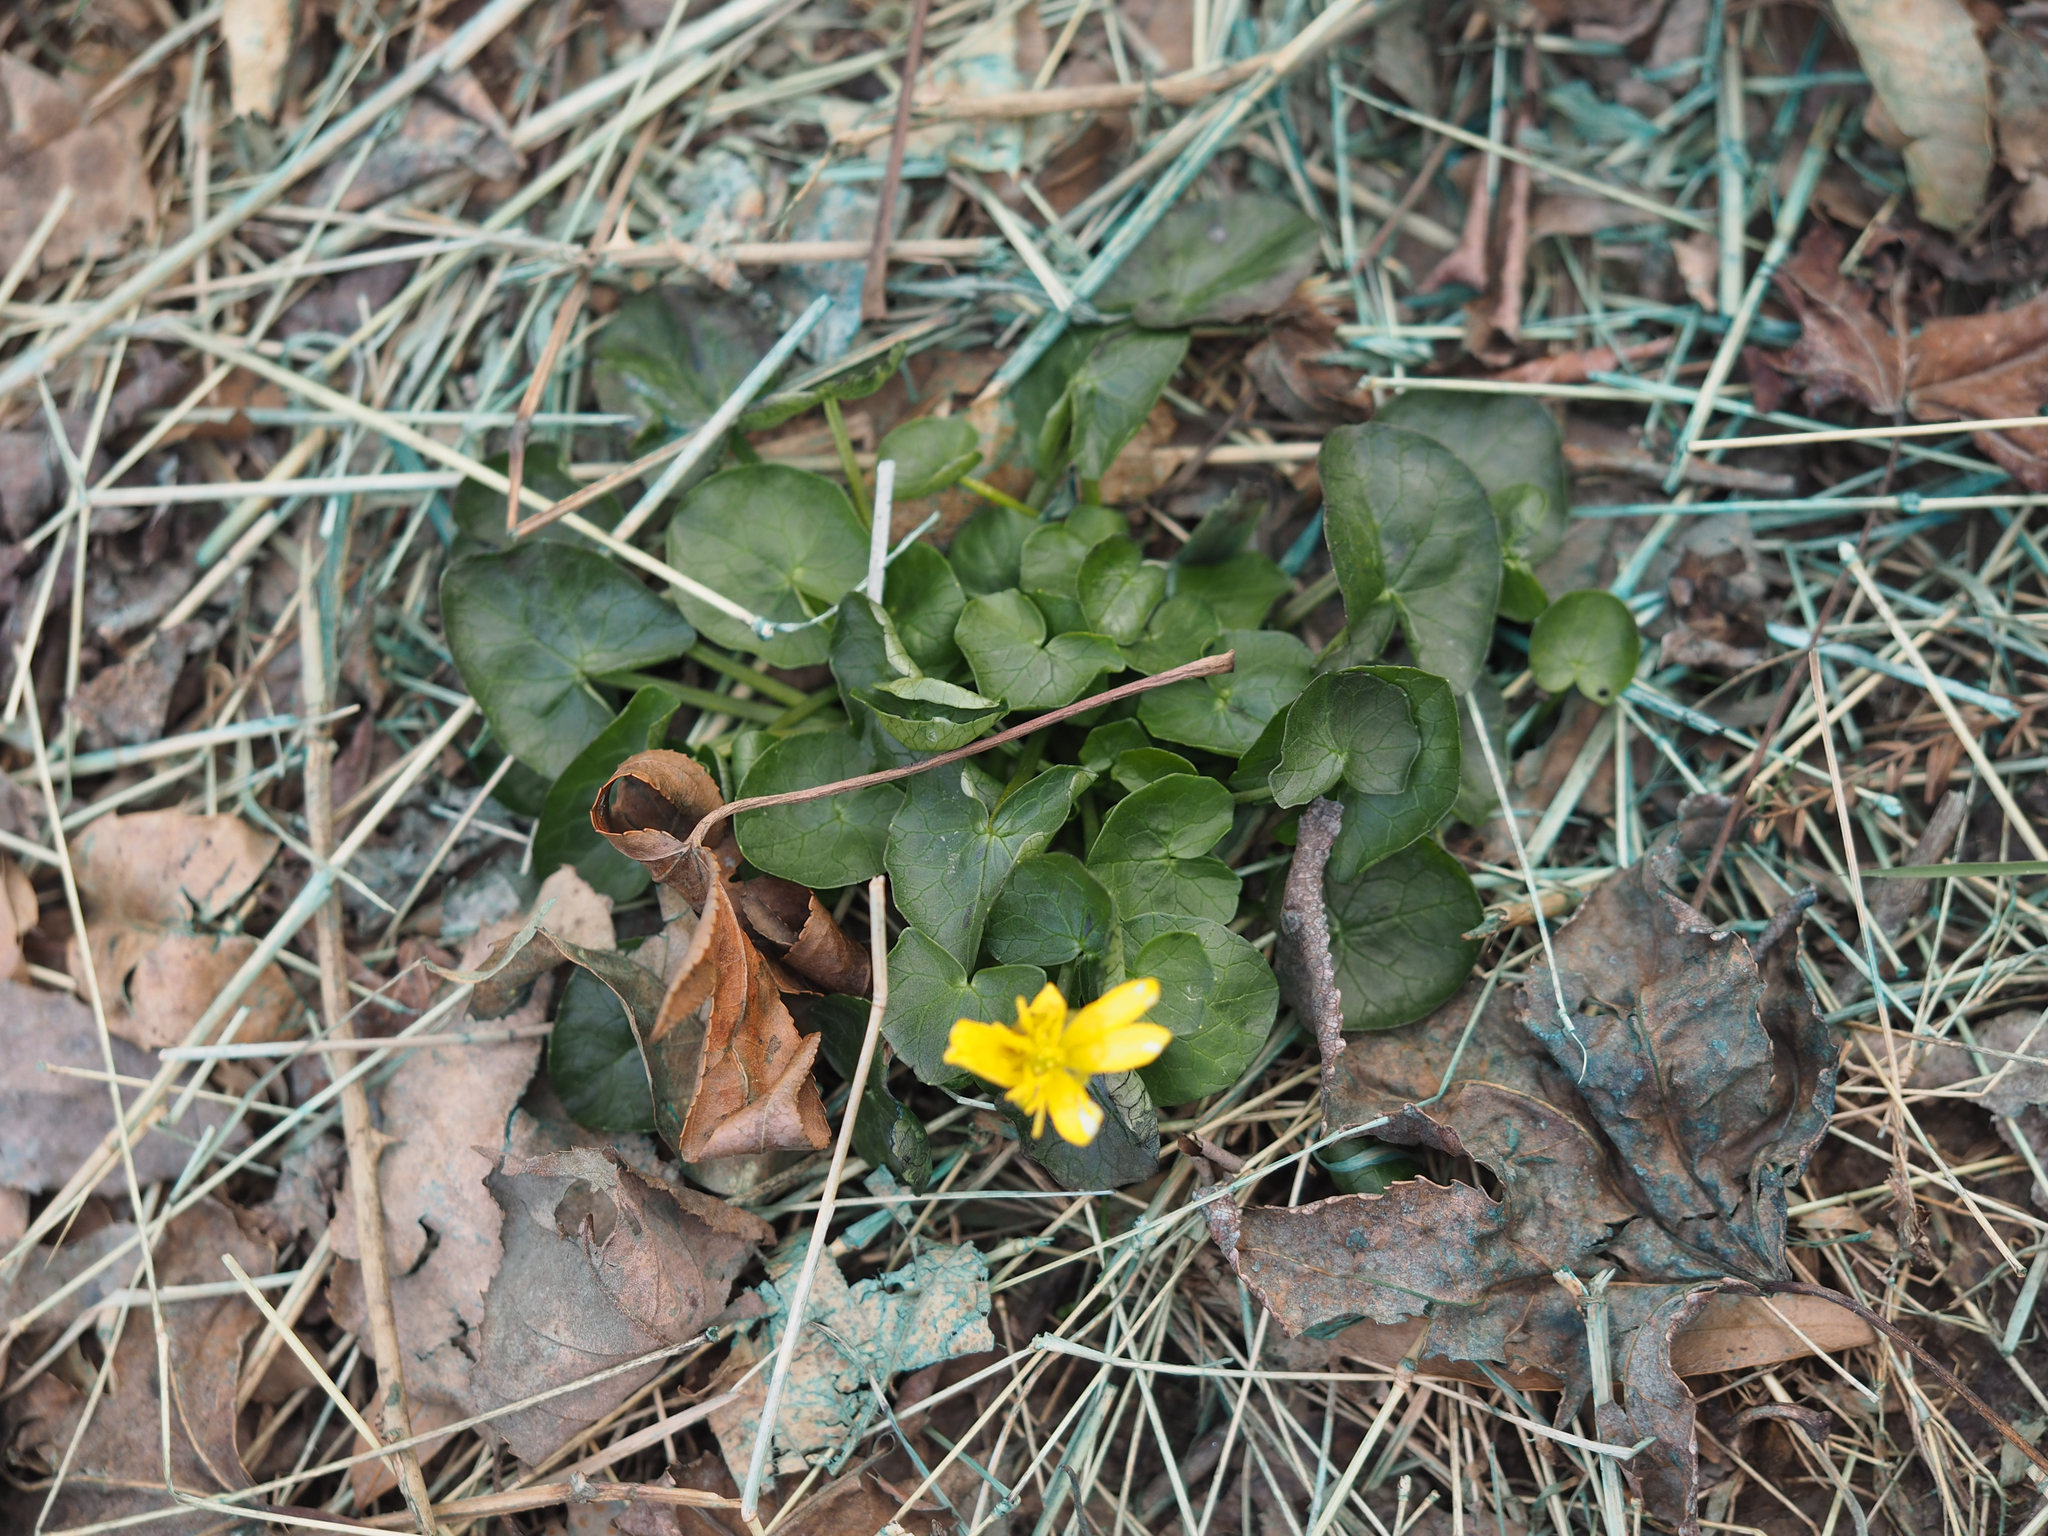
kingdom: Plantae
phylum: Tracheophyta
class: Magnoliopsida
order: Ranunculales
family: Ranunculaceae
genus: Ficaria
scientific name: Ficaria verna
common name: Lesser celandine
